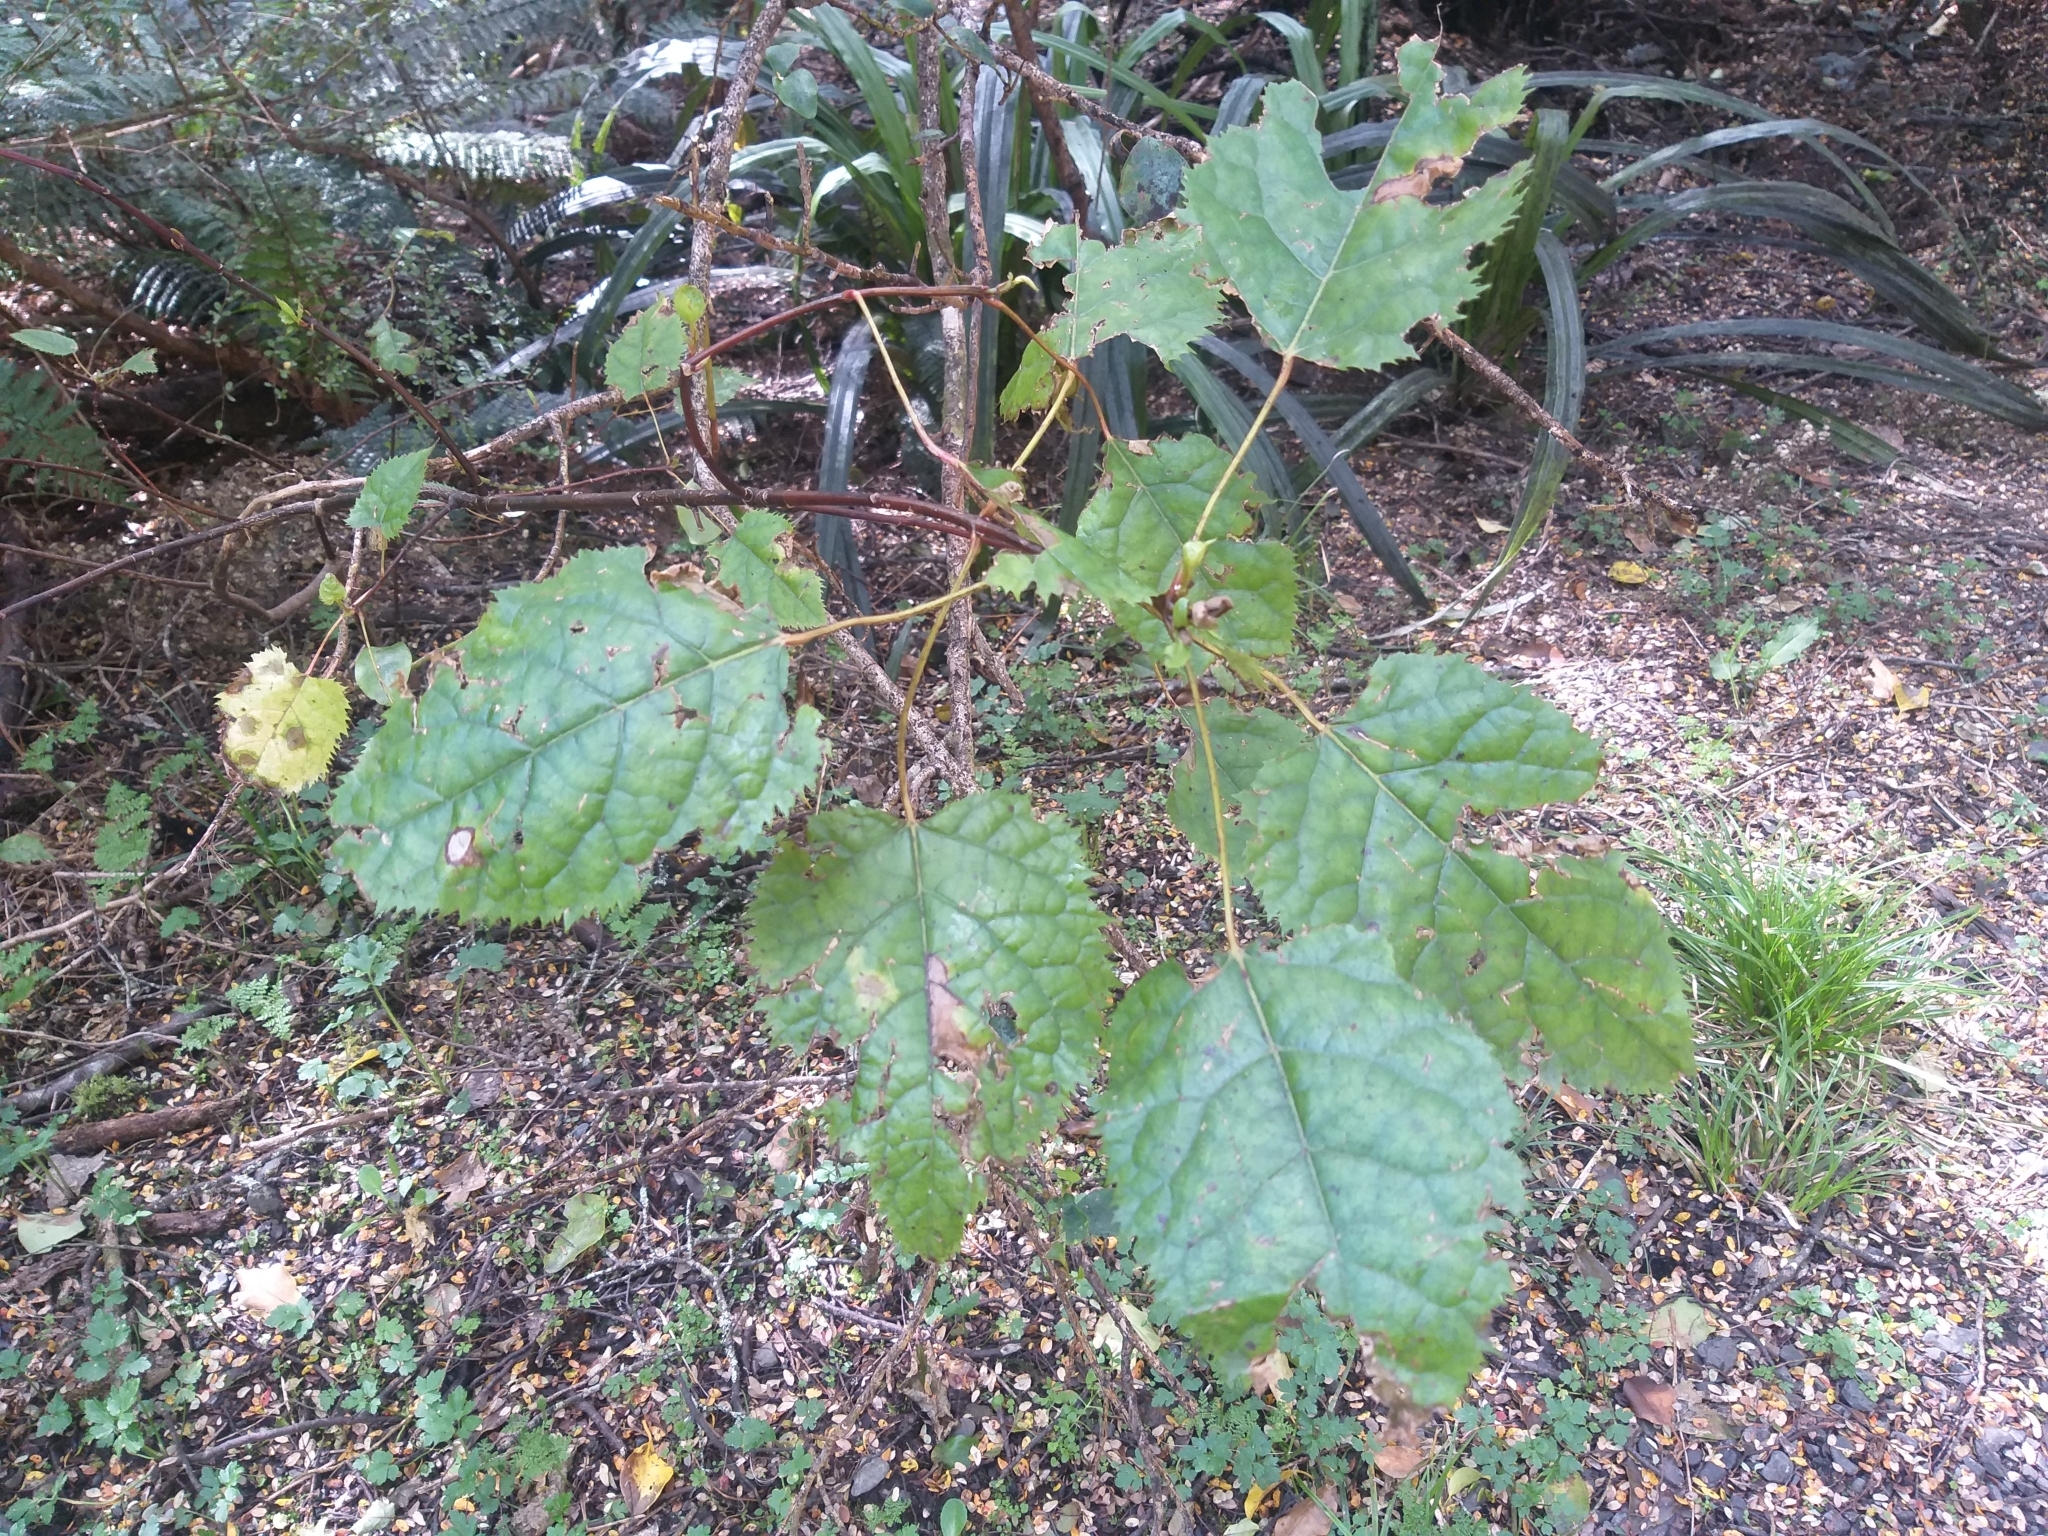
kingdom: Plantae
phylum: Tracheophyta
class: Magnoliopsida
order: Oxalidales
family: Elaeocarpaceae
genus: Aristotelia
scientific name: Aristotelia serrata
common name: New zealand wineberry
